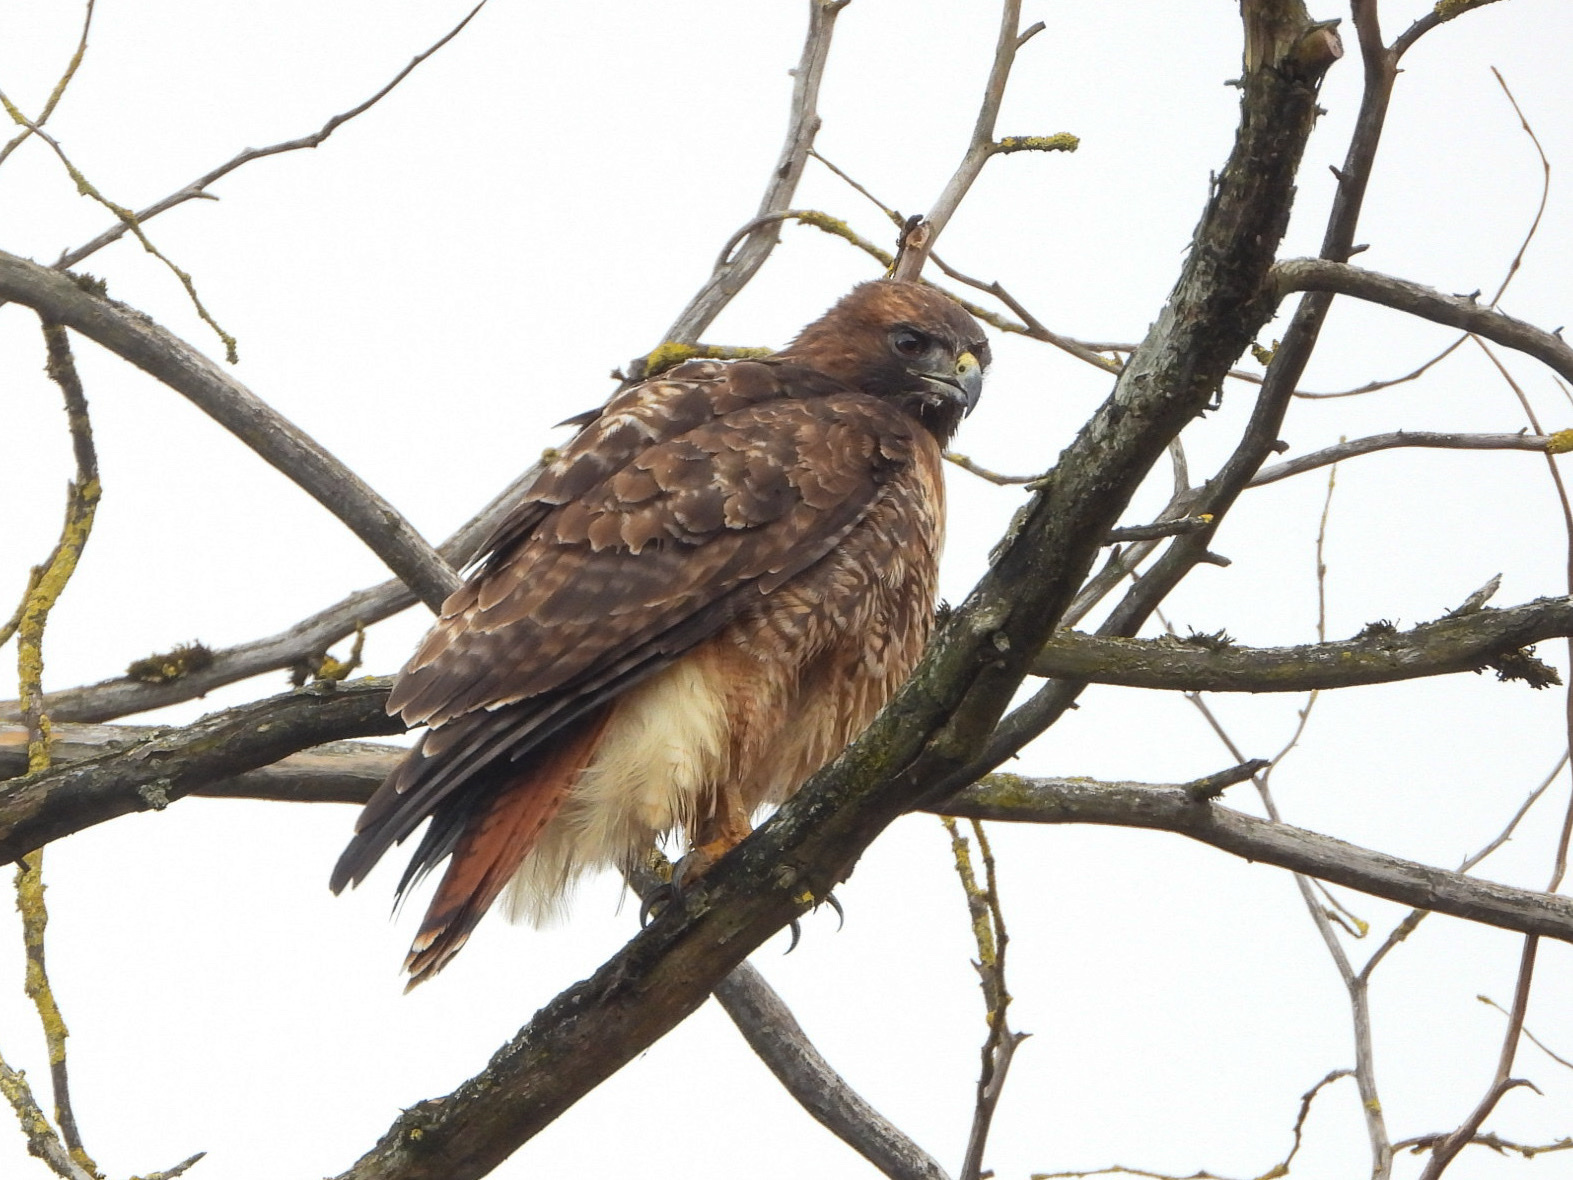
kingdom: Animalia
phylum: Chordata
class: Aves
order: Accipitriformes
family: Accipitridae
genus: Buteo
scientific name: Buteo jamaicensis
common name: Red-tailed hawk
